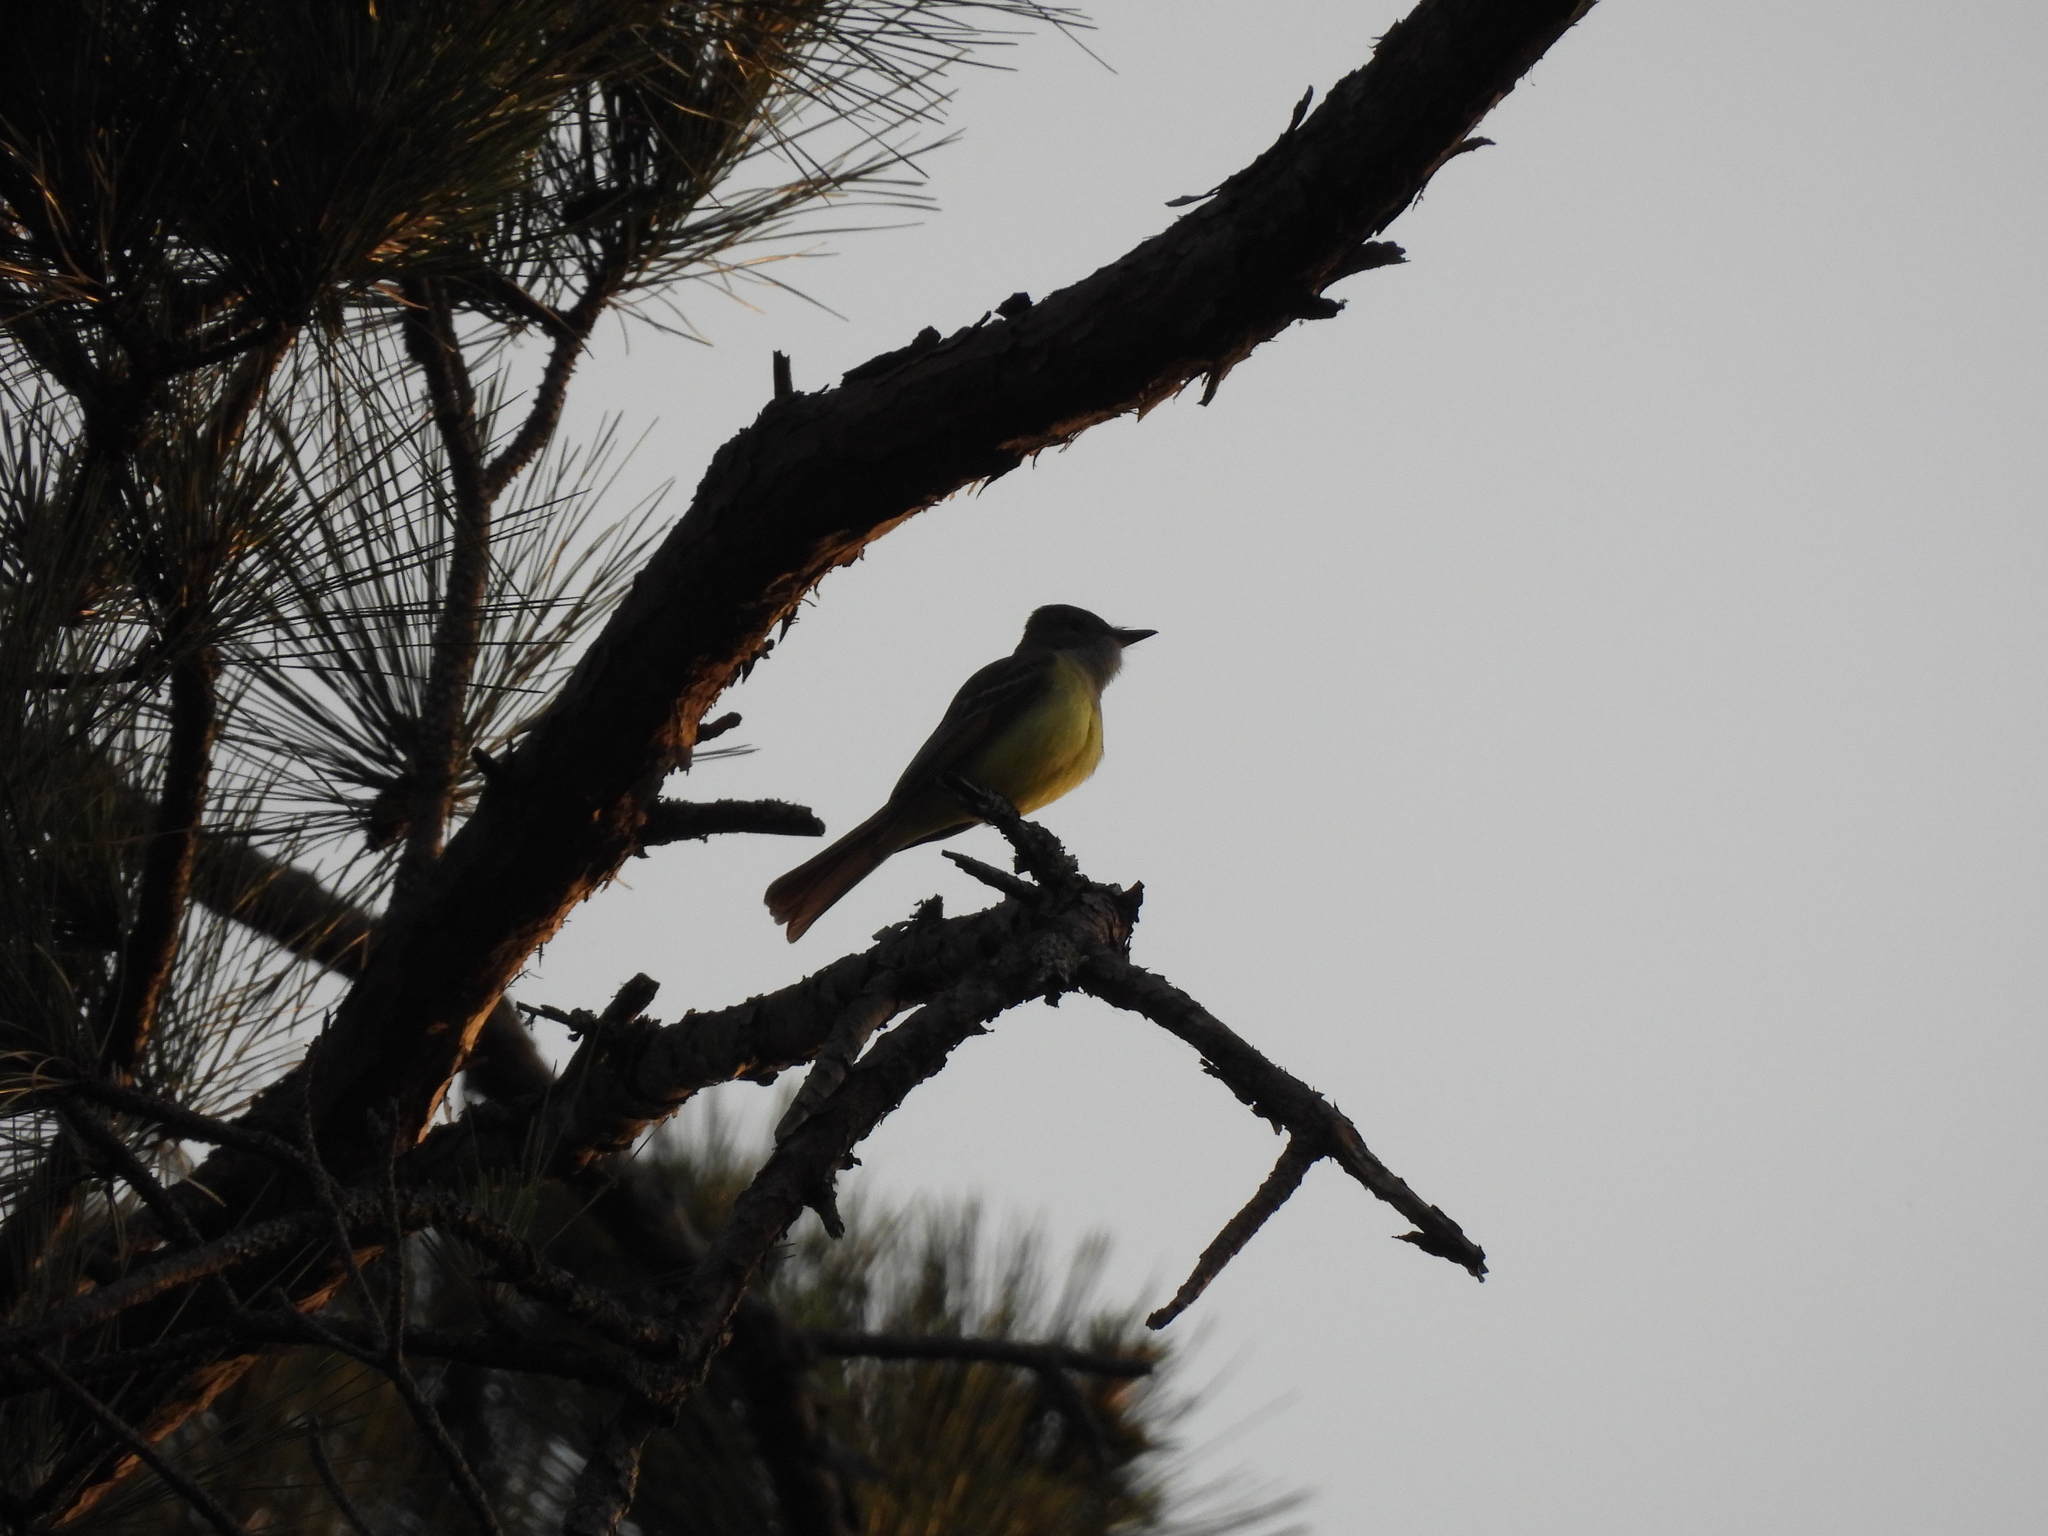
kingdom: Animalia
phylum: Chordata
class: Aves
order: Passeriformes
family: Tyrannidae
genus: Myiarchus
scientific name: Myiarchus crinitus
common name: Great crested flycatcher
